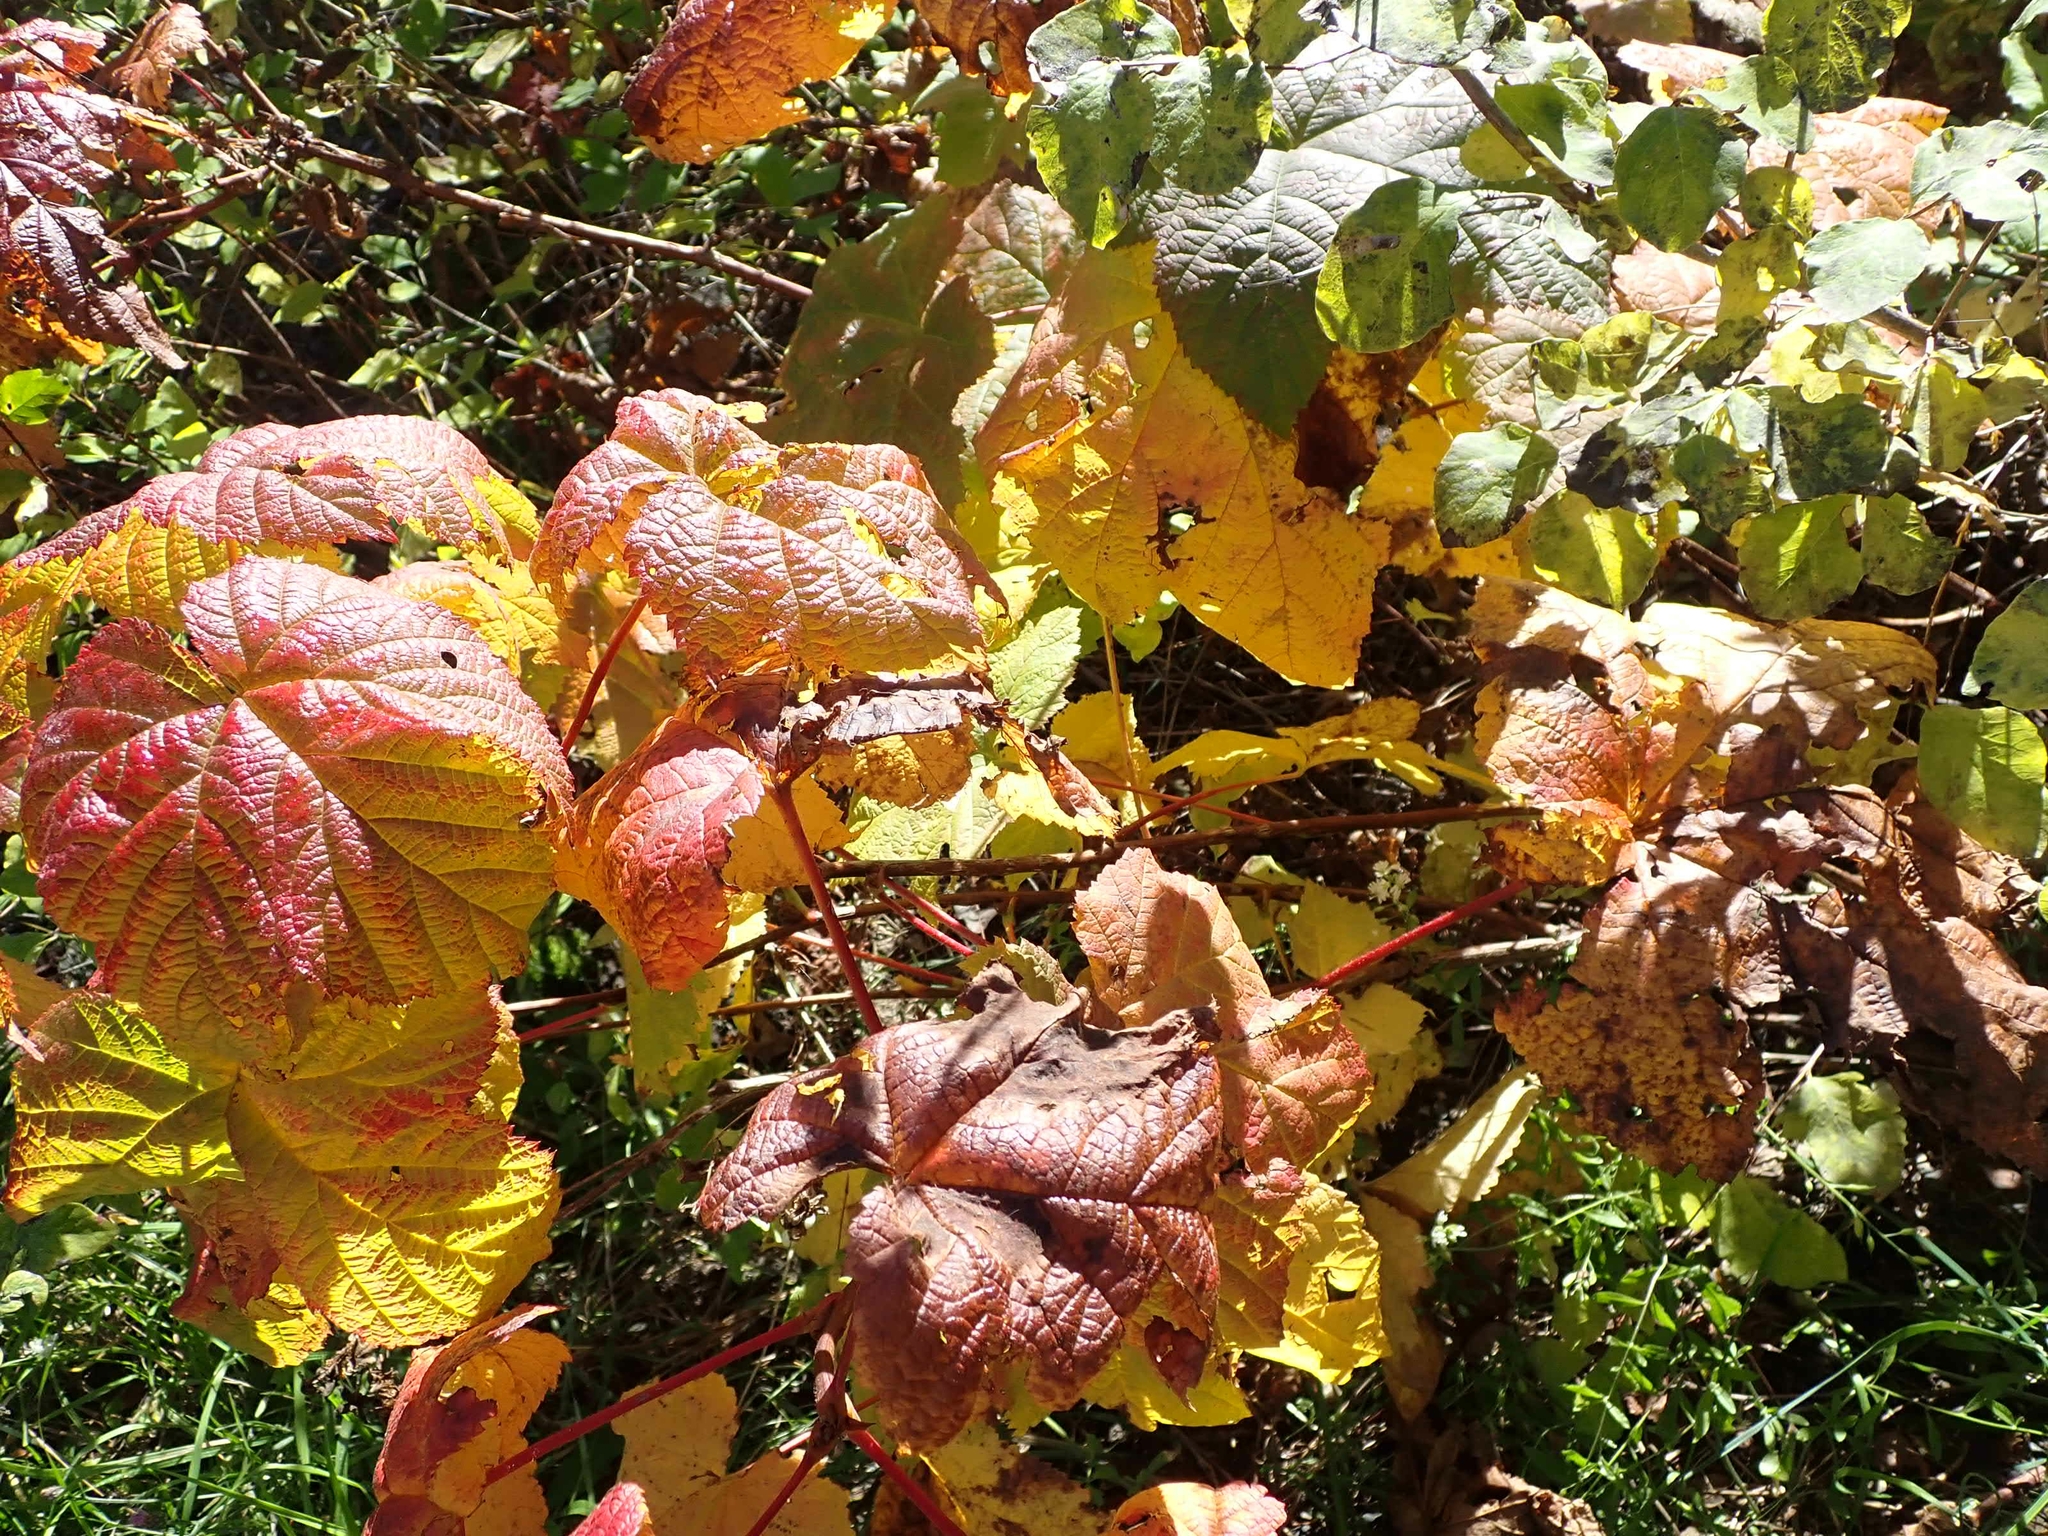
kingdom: Plantae
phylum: Tracheophyta
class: Magnoliopsida
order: Rosales
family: Rosaceae
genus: Rubus
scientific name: Rubus parviflorus
